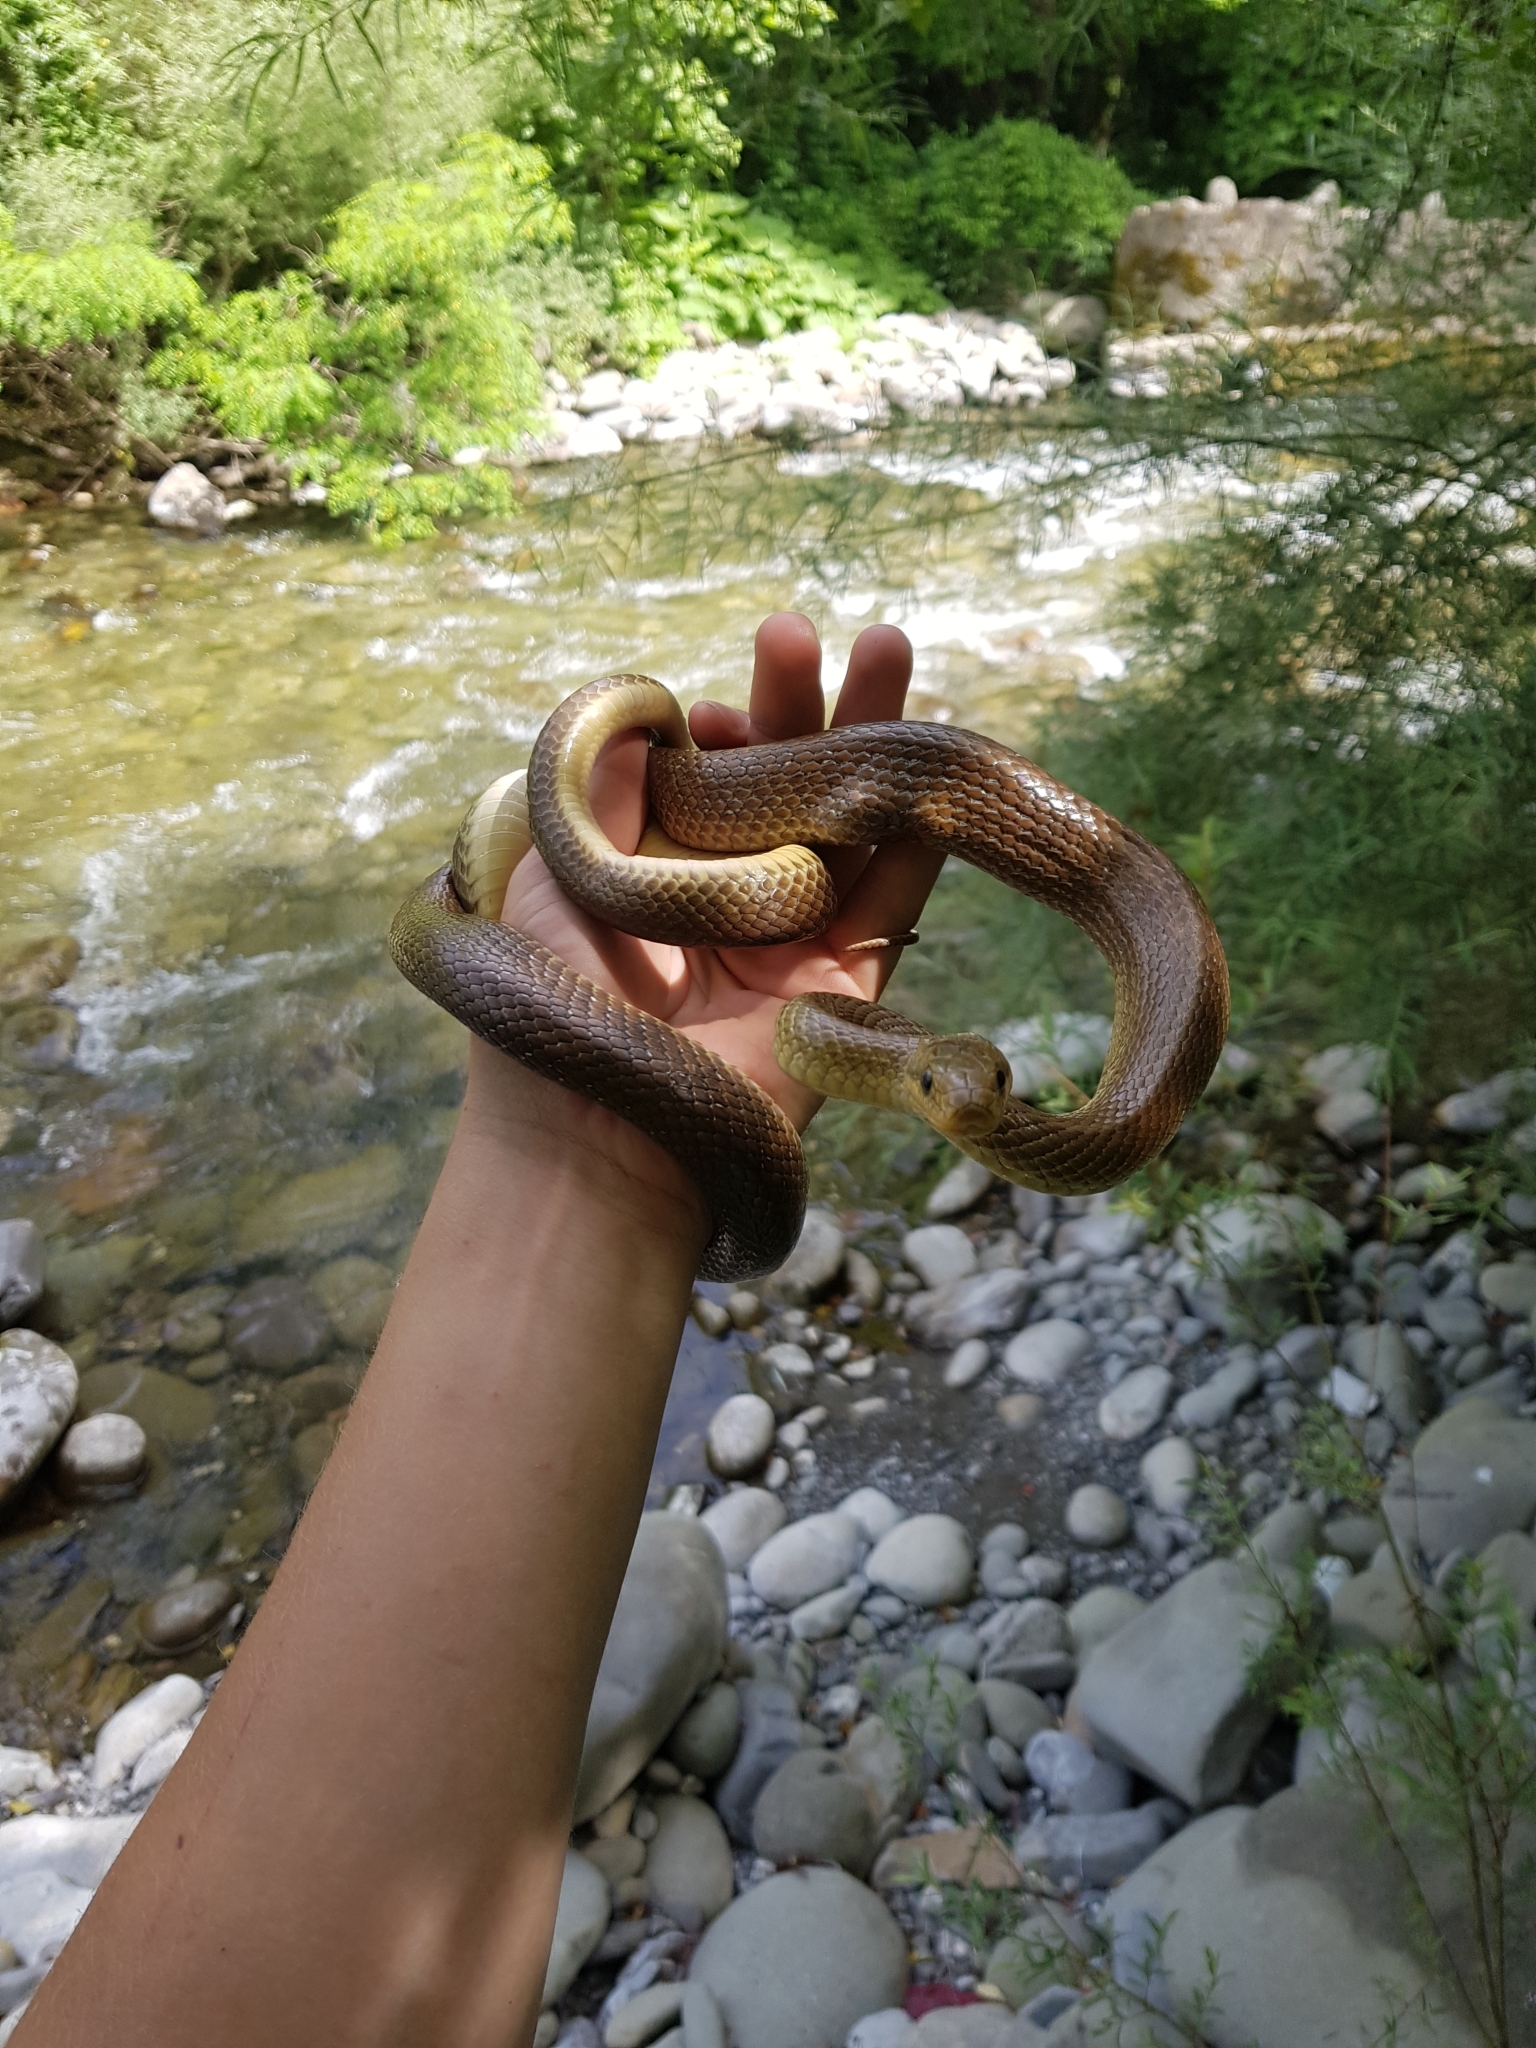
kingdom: Animalia
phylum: Chordata
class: Squamata
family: Colubridae
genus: Zamenis
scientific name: Zamenis longissimus
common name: Aesculapean snake
